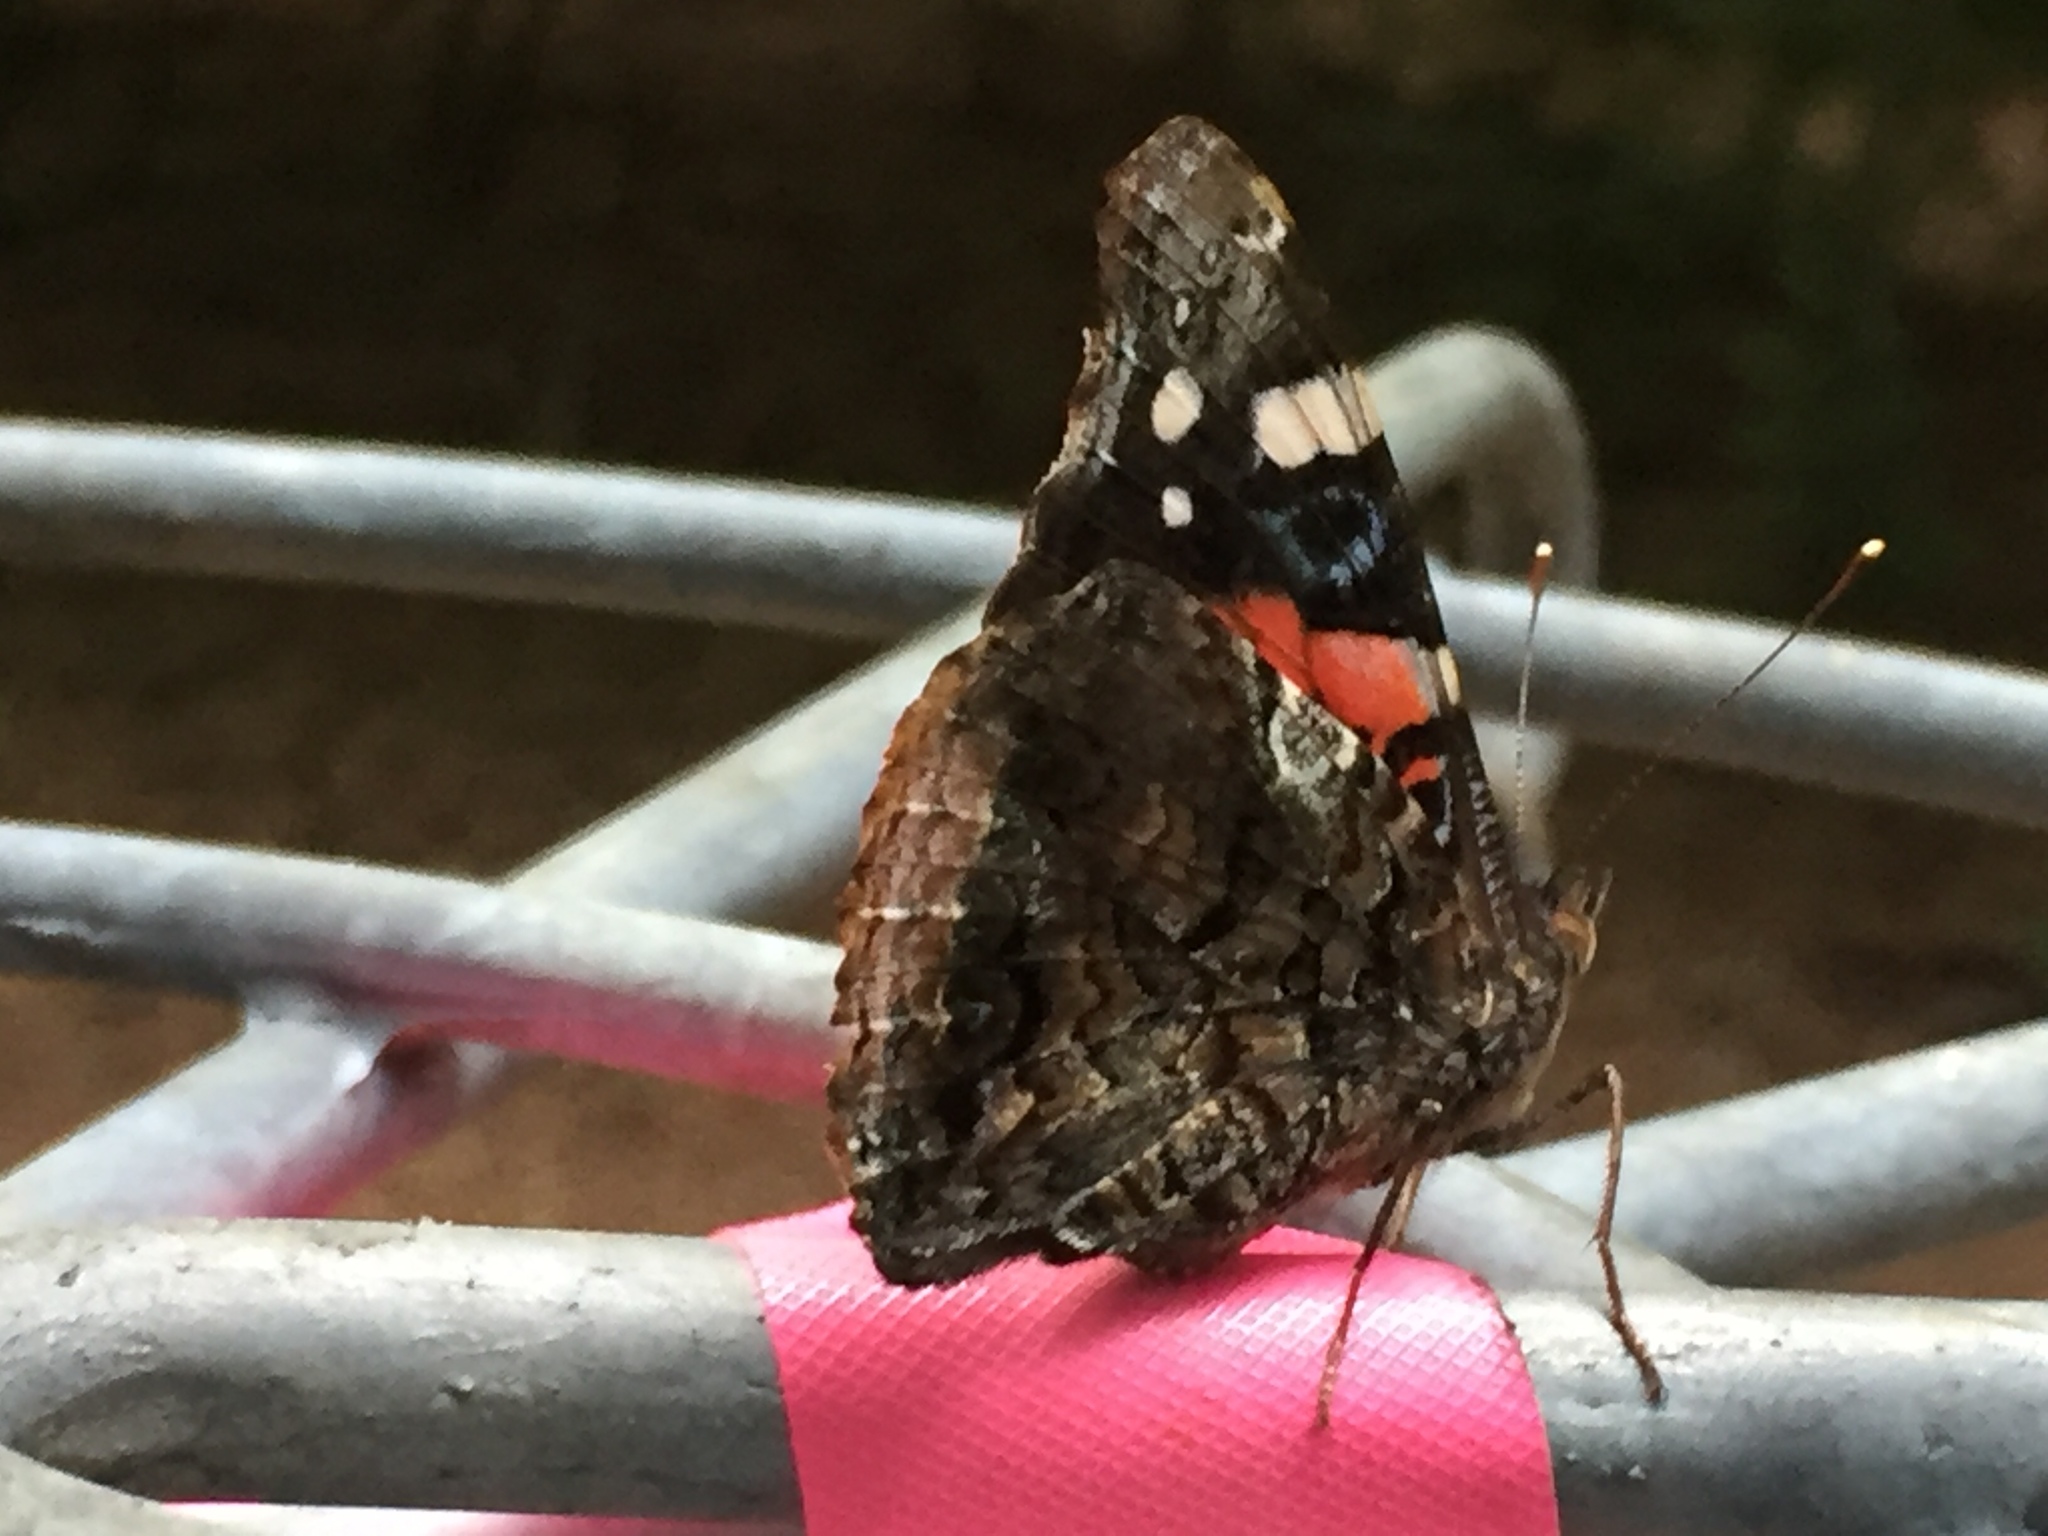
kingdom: Animalia
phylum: Arthropoda
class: Insecta
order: Lepidoptera
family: Nymphalidae
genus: Vanessa
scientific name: Vanessa atalanta
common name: Red admiral
